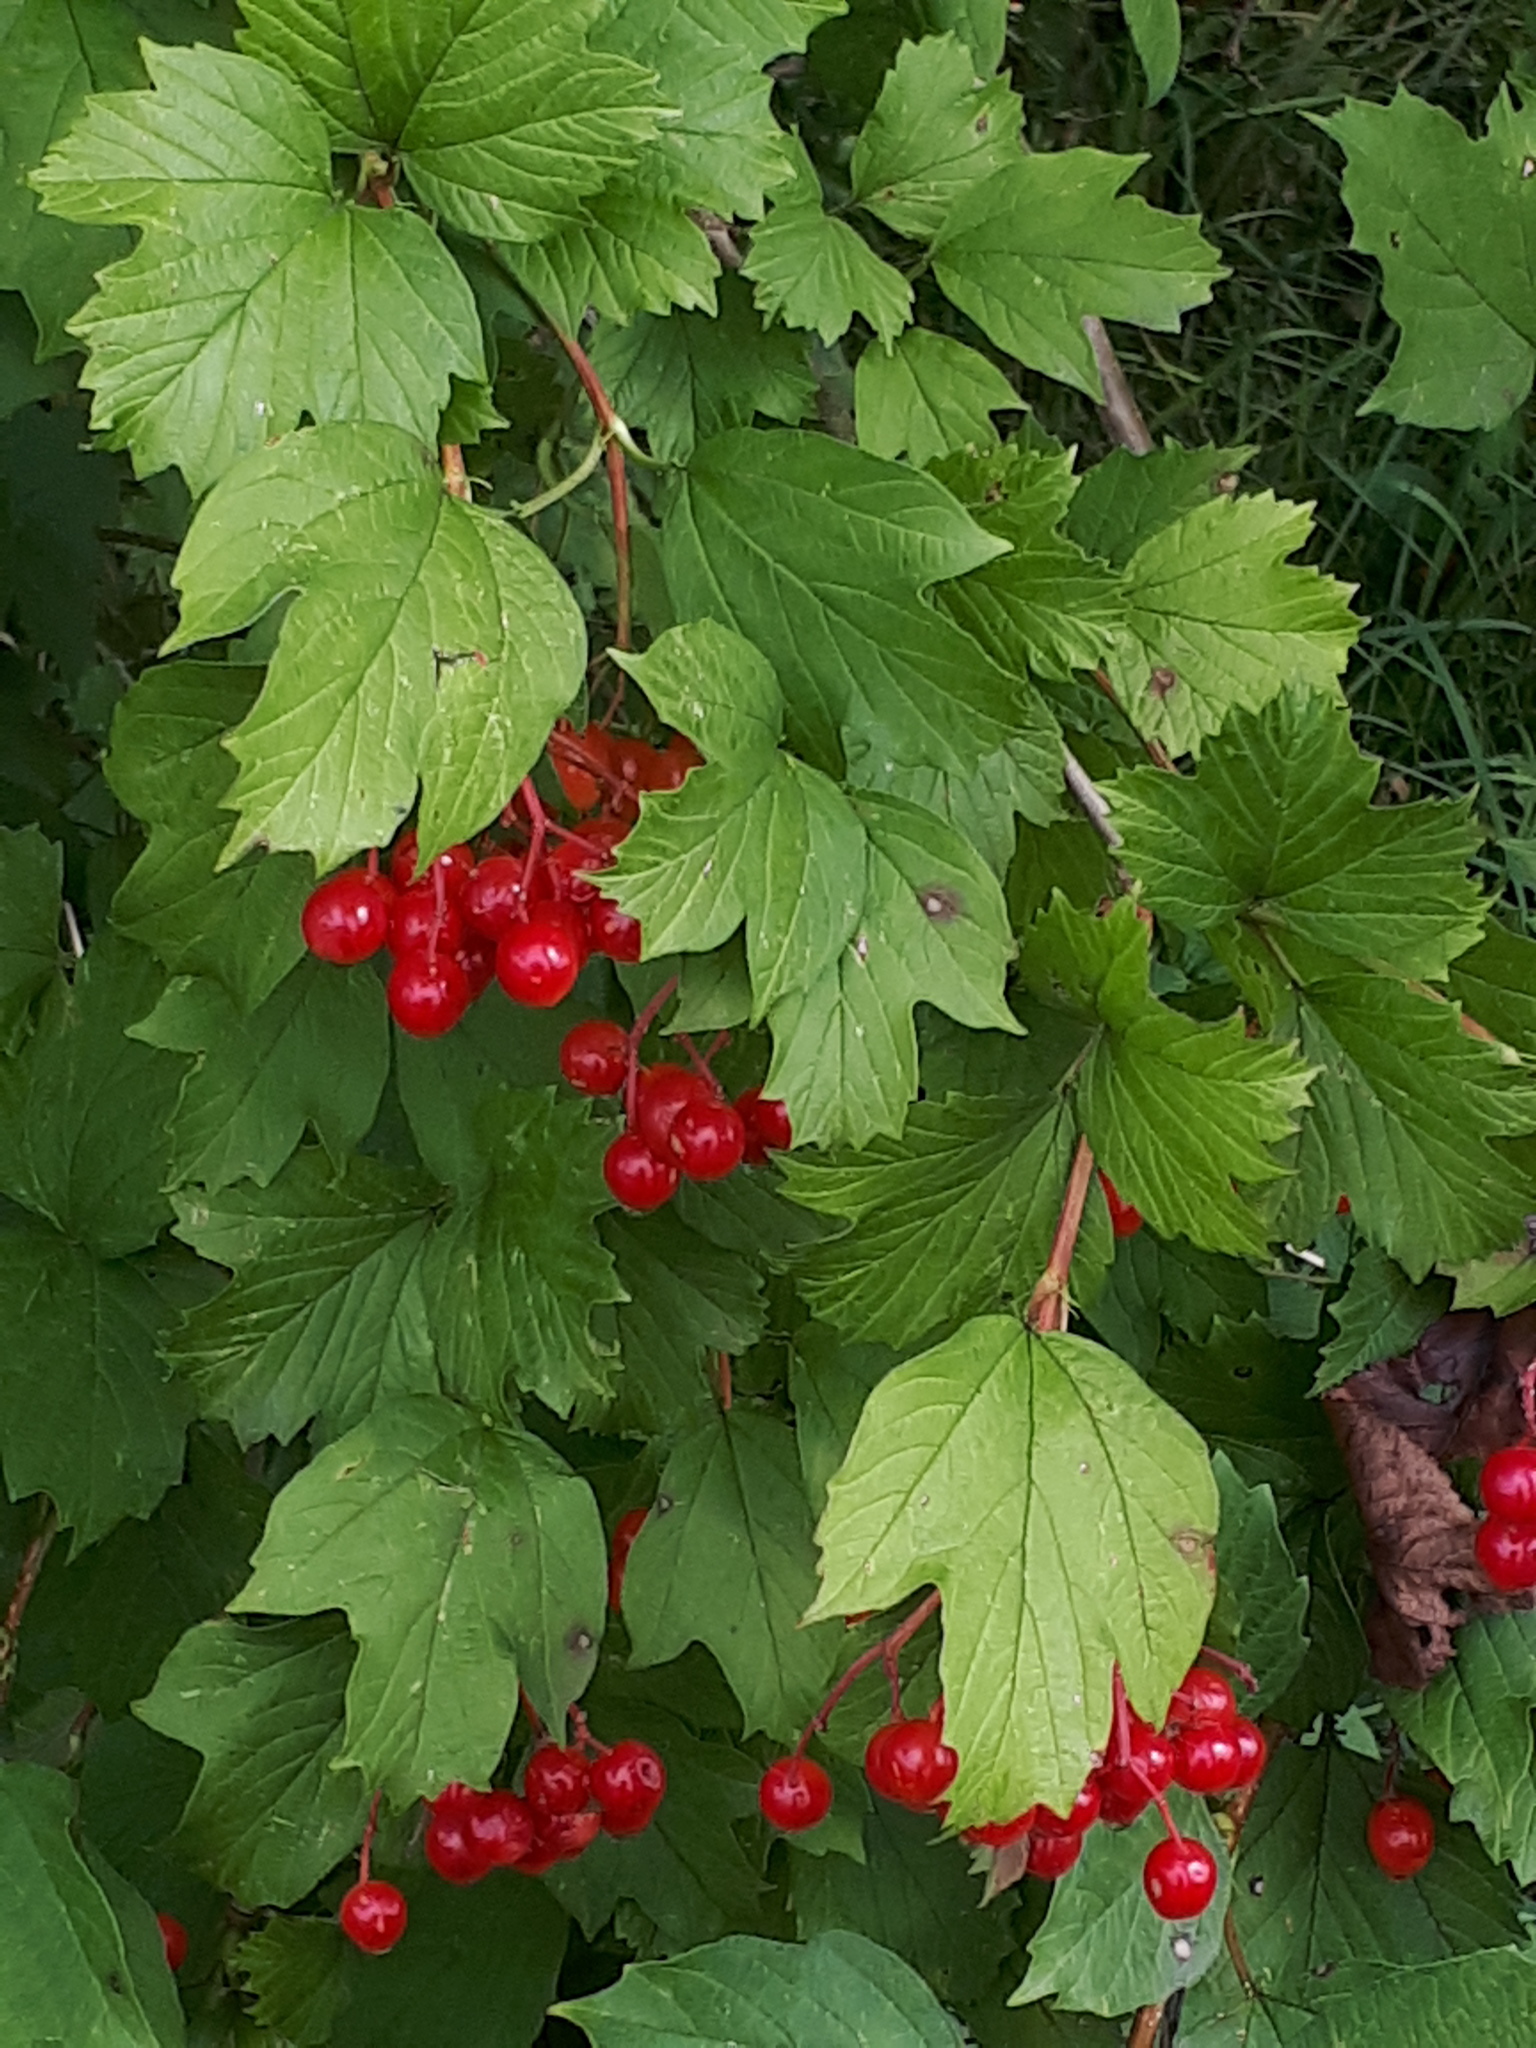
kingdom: Plantae
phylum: Tracheophyta
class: Magnoliopsida
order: Dipsacales
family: Viburnaceae
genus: Viburnum
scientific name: Viburnum opulus
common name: Guelder-rose
